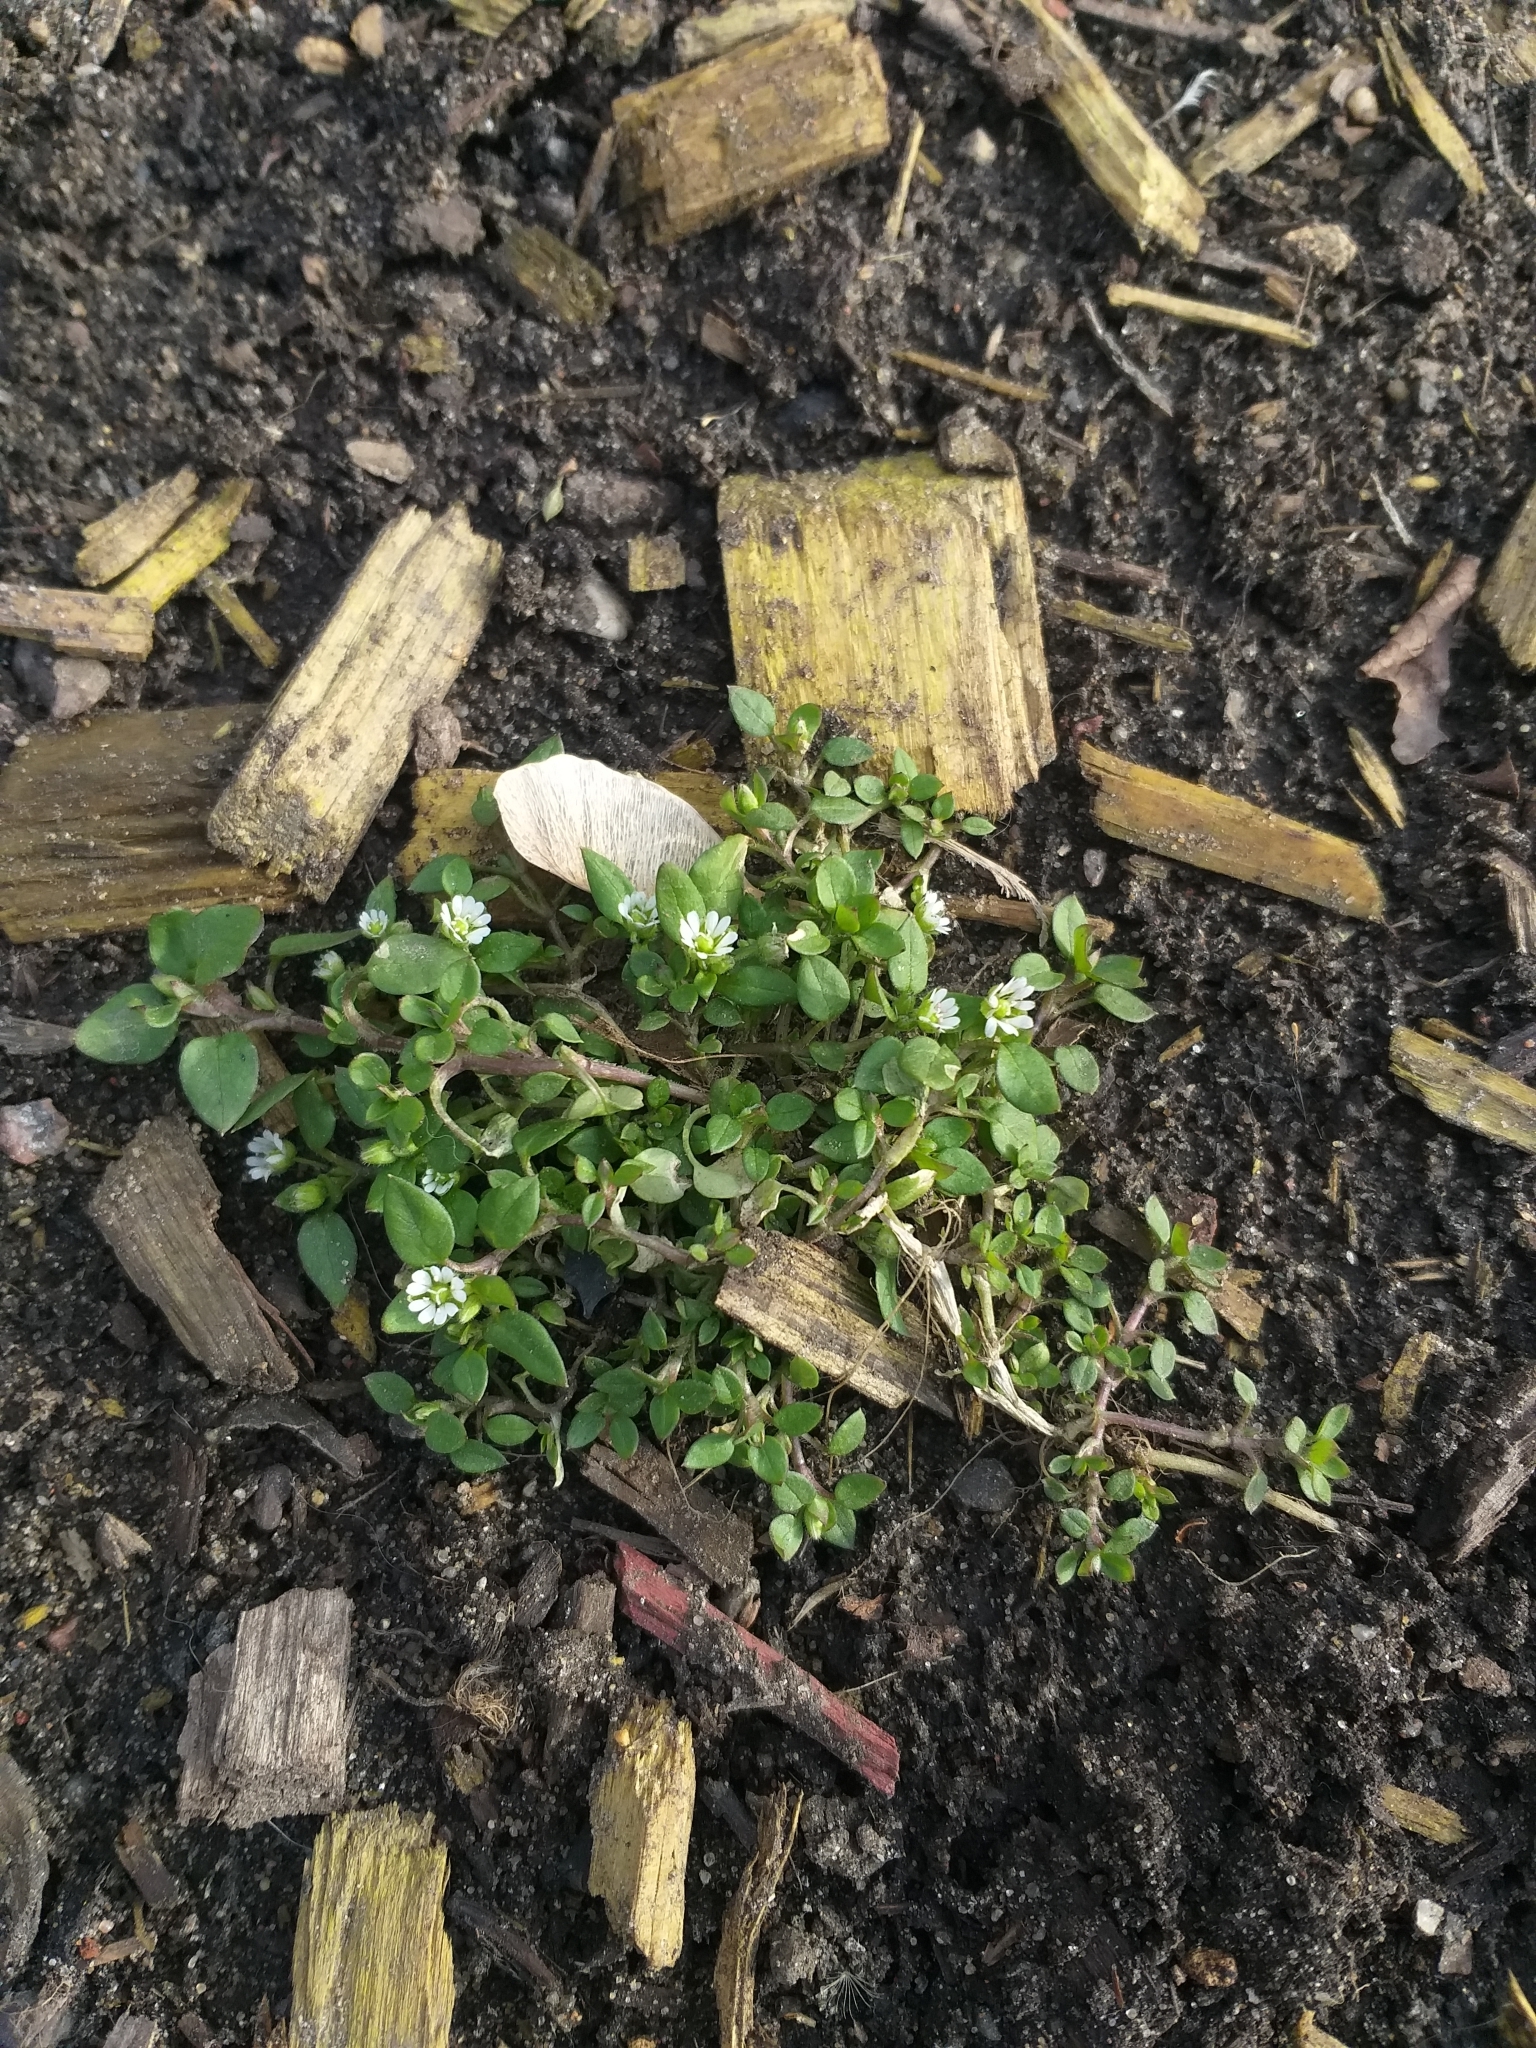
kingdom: Plantae
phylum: Tracheophyta
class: Magnoliopsida
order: Caryophyllales
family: Caryophyllaceae
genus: Stellaria
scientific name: Stellaria media
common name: Common chickweed
